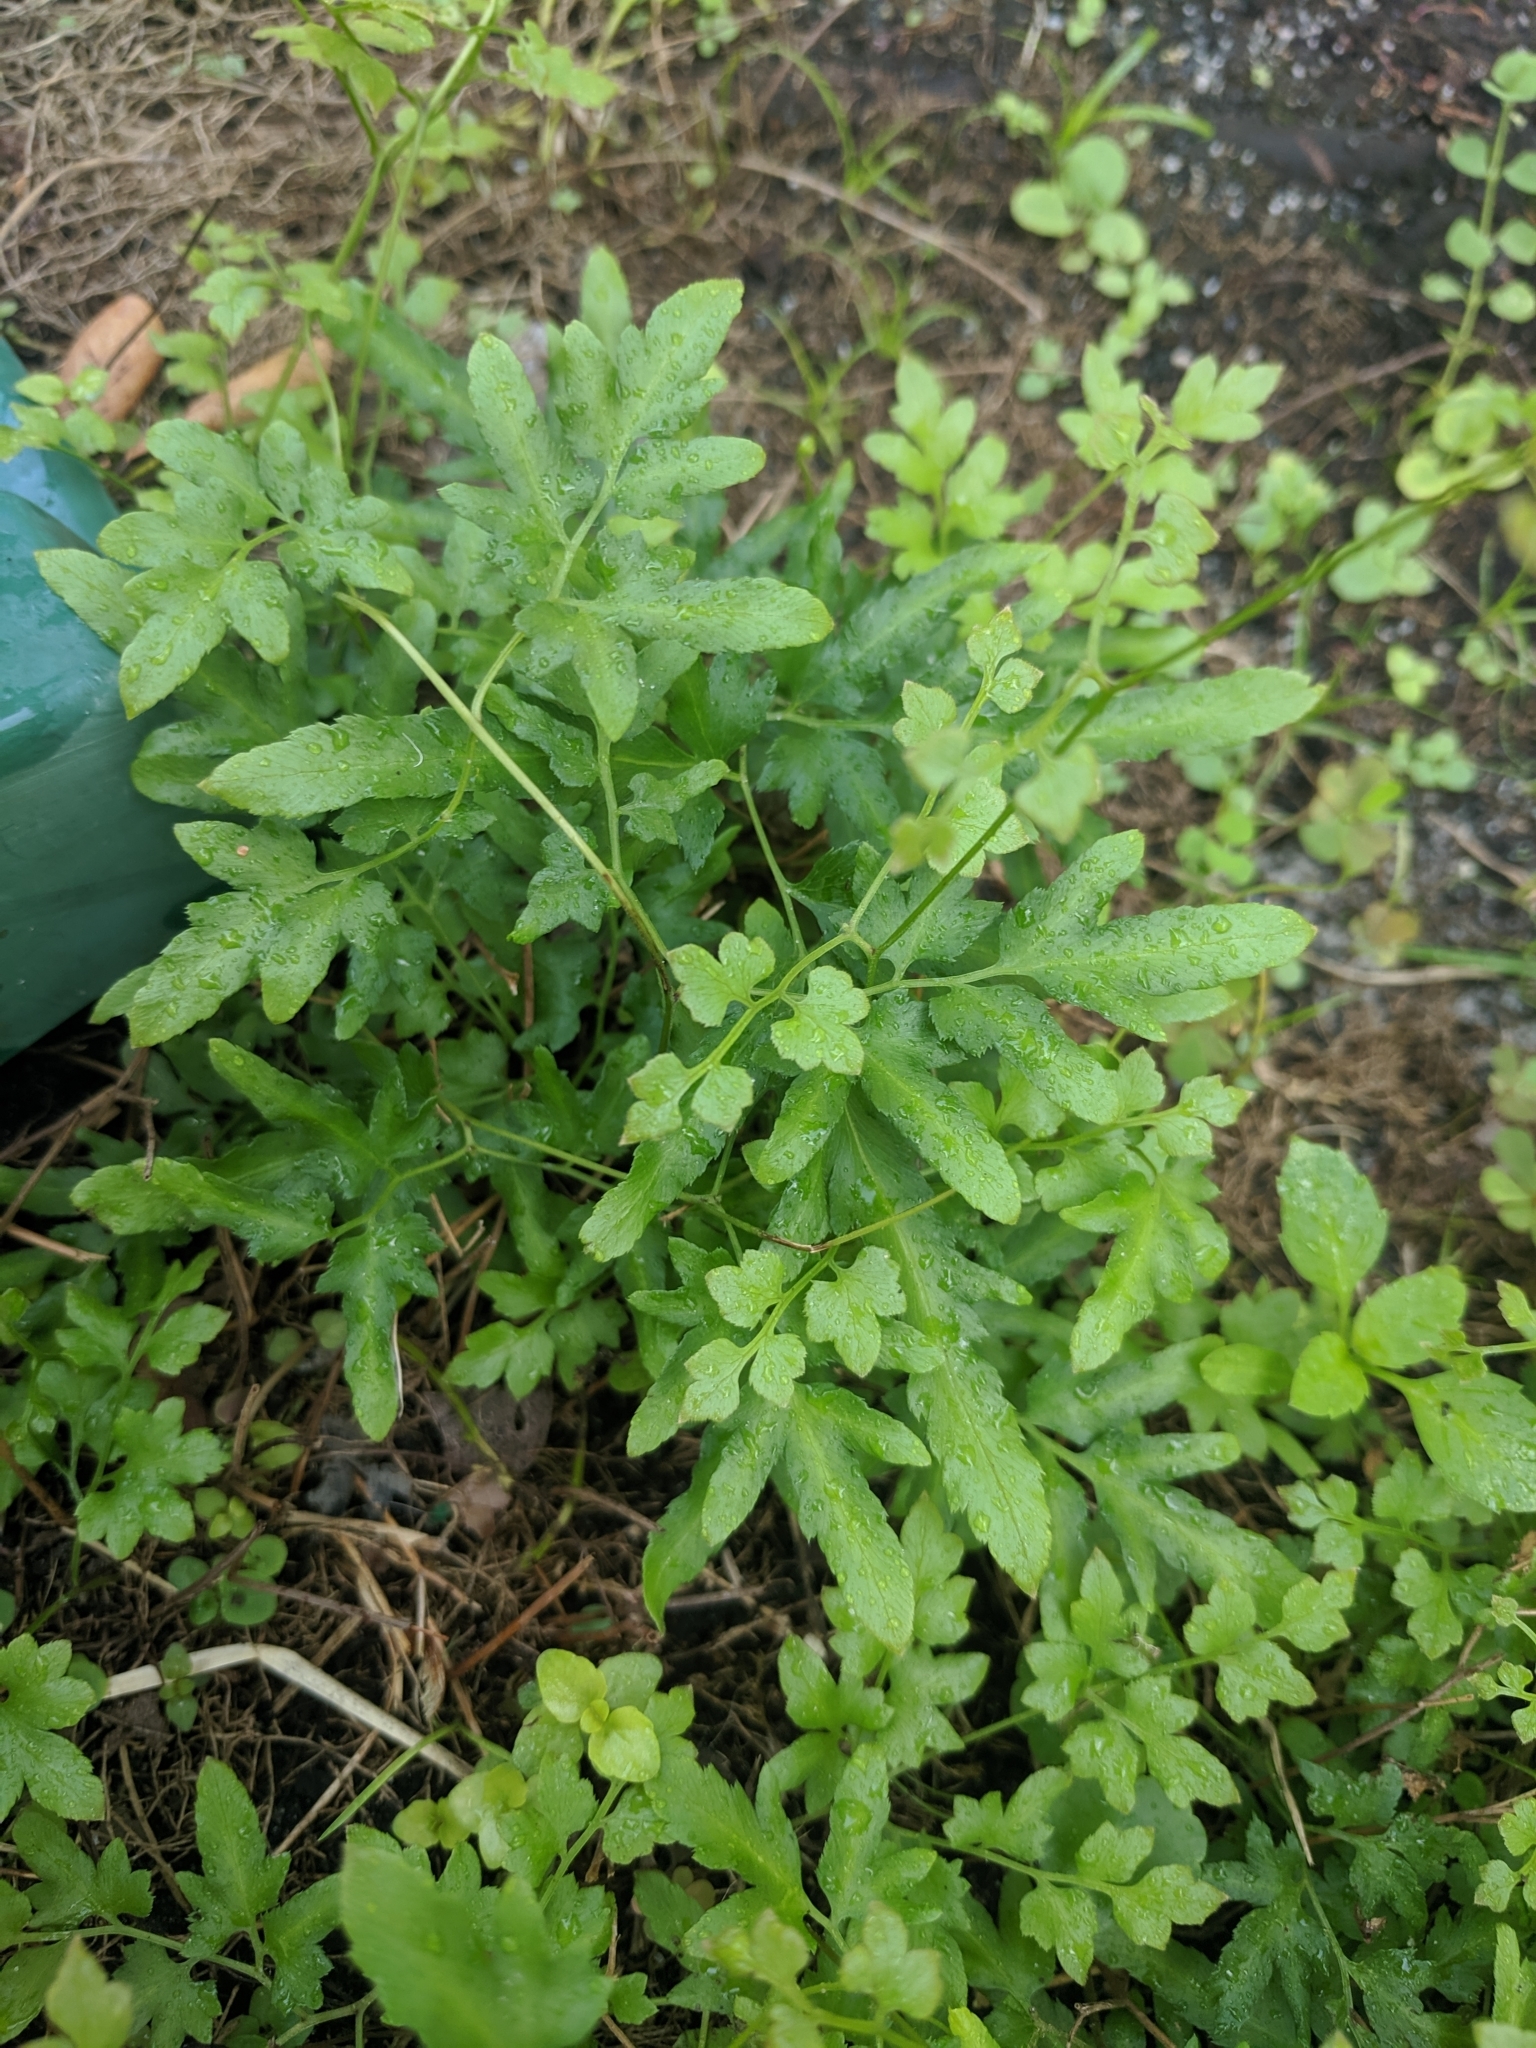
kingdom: Plantae
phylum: Tracheophyta
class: Polypodiopsida
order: Schizaeales
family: Lygodiaceae
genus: Lygodium
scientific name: Lygodium japonicum
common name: Japanese climbing fern
